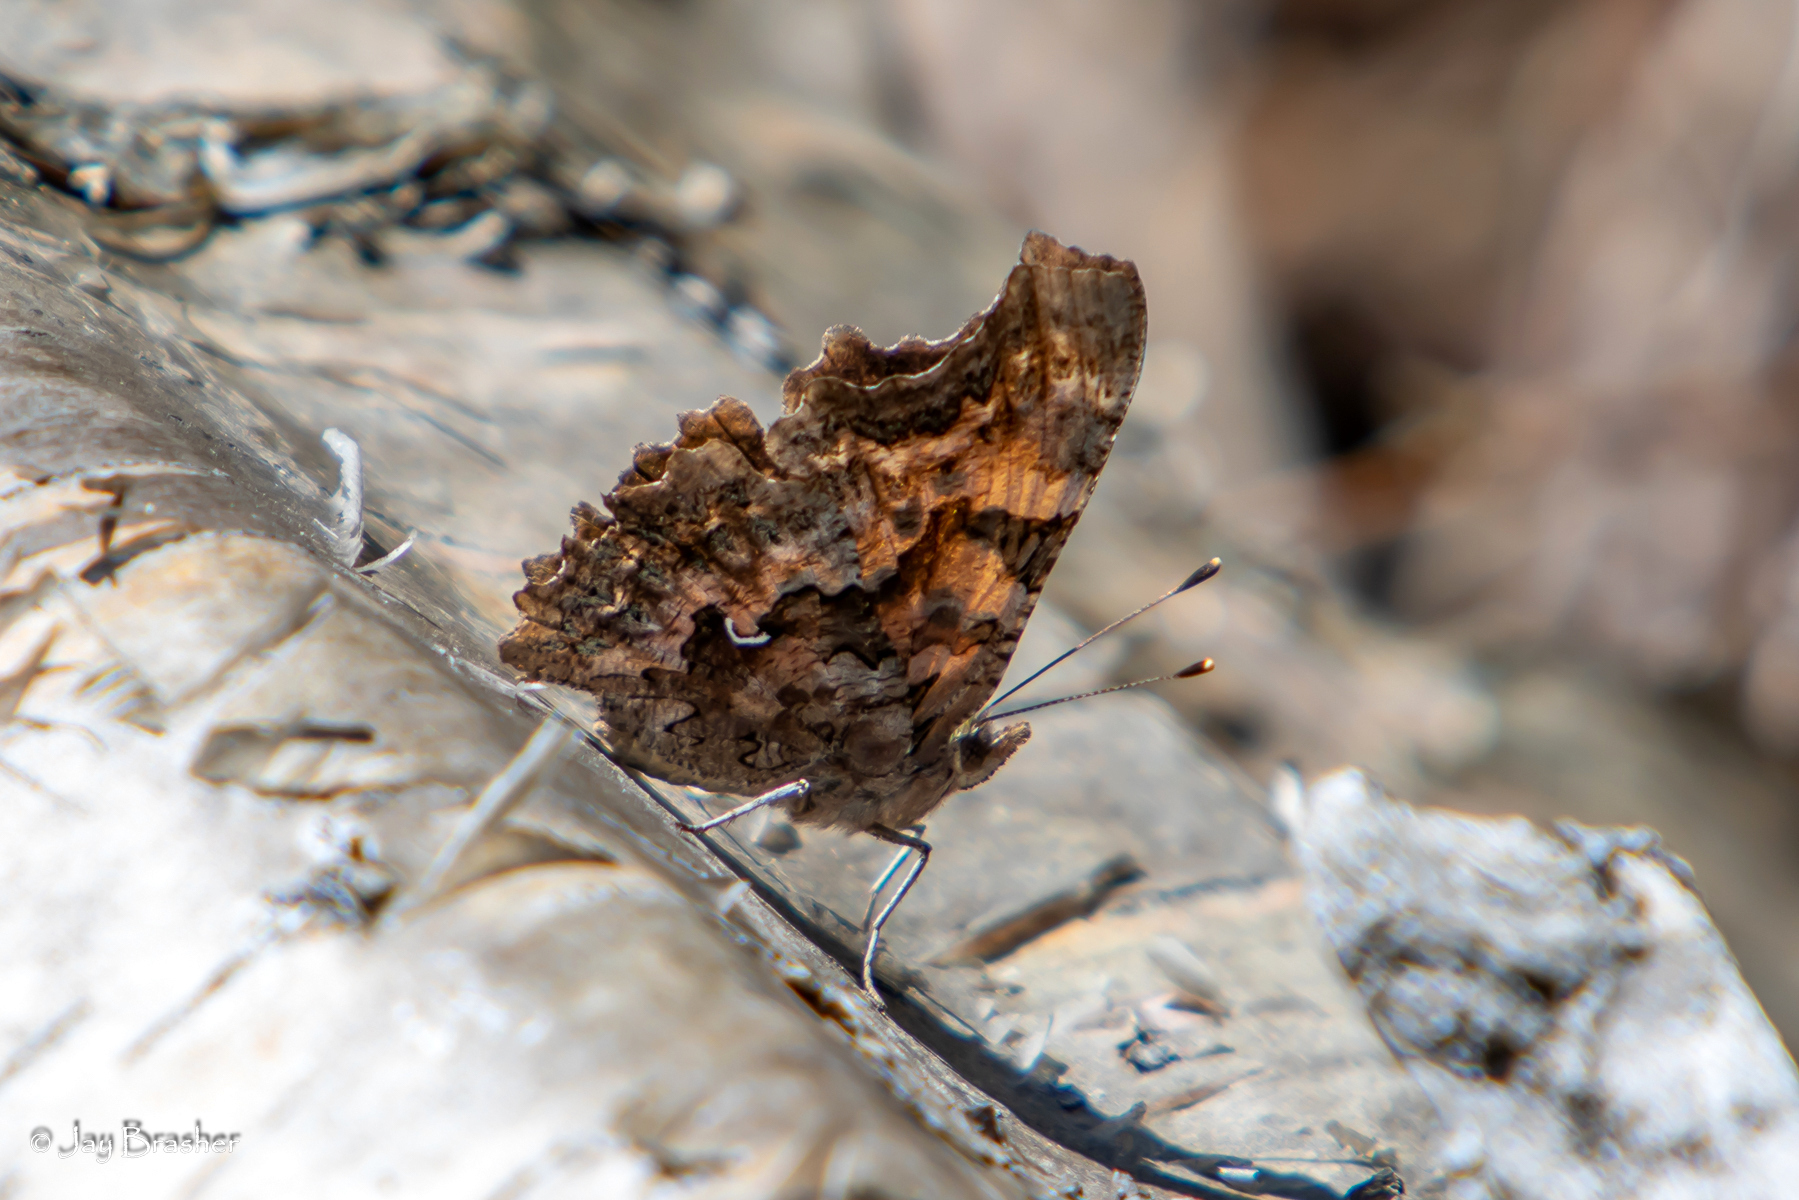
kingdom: Animalia
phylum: Arthropoda
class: Insecta
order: Lepidoptera
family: Nymphalidae
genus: Polygonia
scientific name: Polygonia faunus
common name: Green comma
